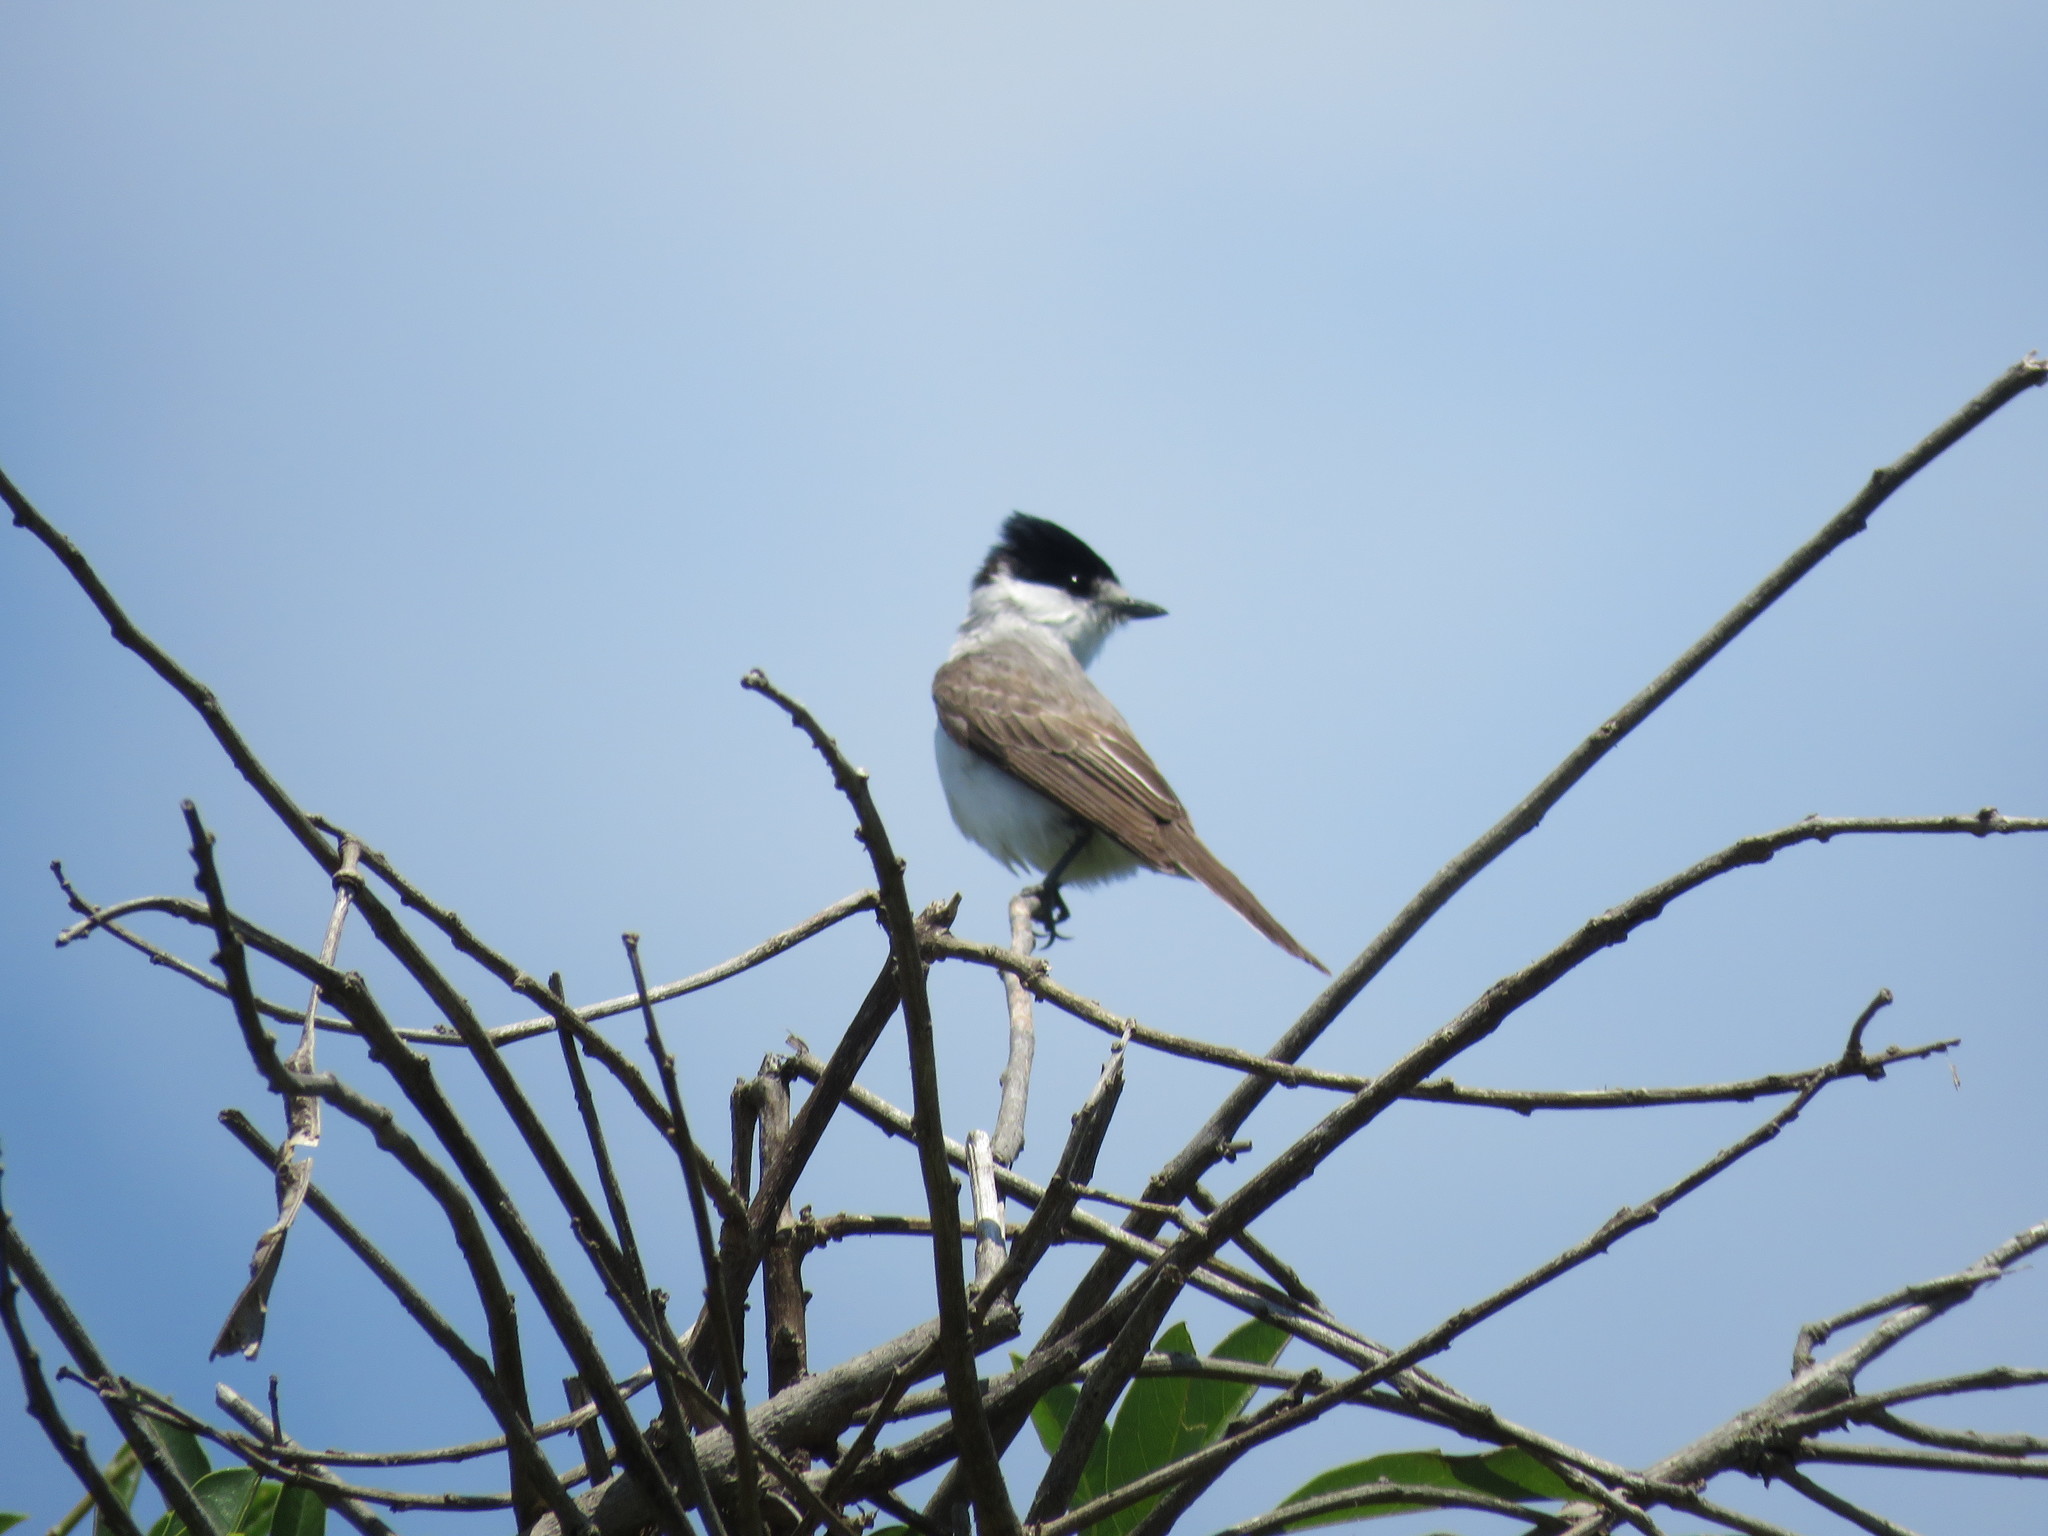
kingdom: Animalia
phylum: Chordata
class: Aves
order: Passeriformes
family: Cotingidae
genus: Xenopsaris
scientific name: Xenopsaris albinucha
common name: White-naped xenopsaris
